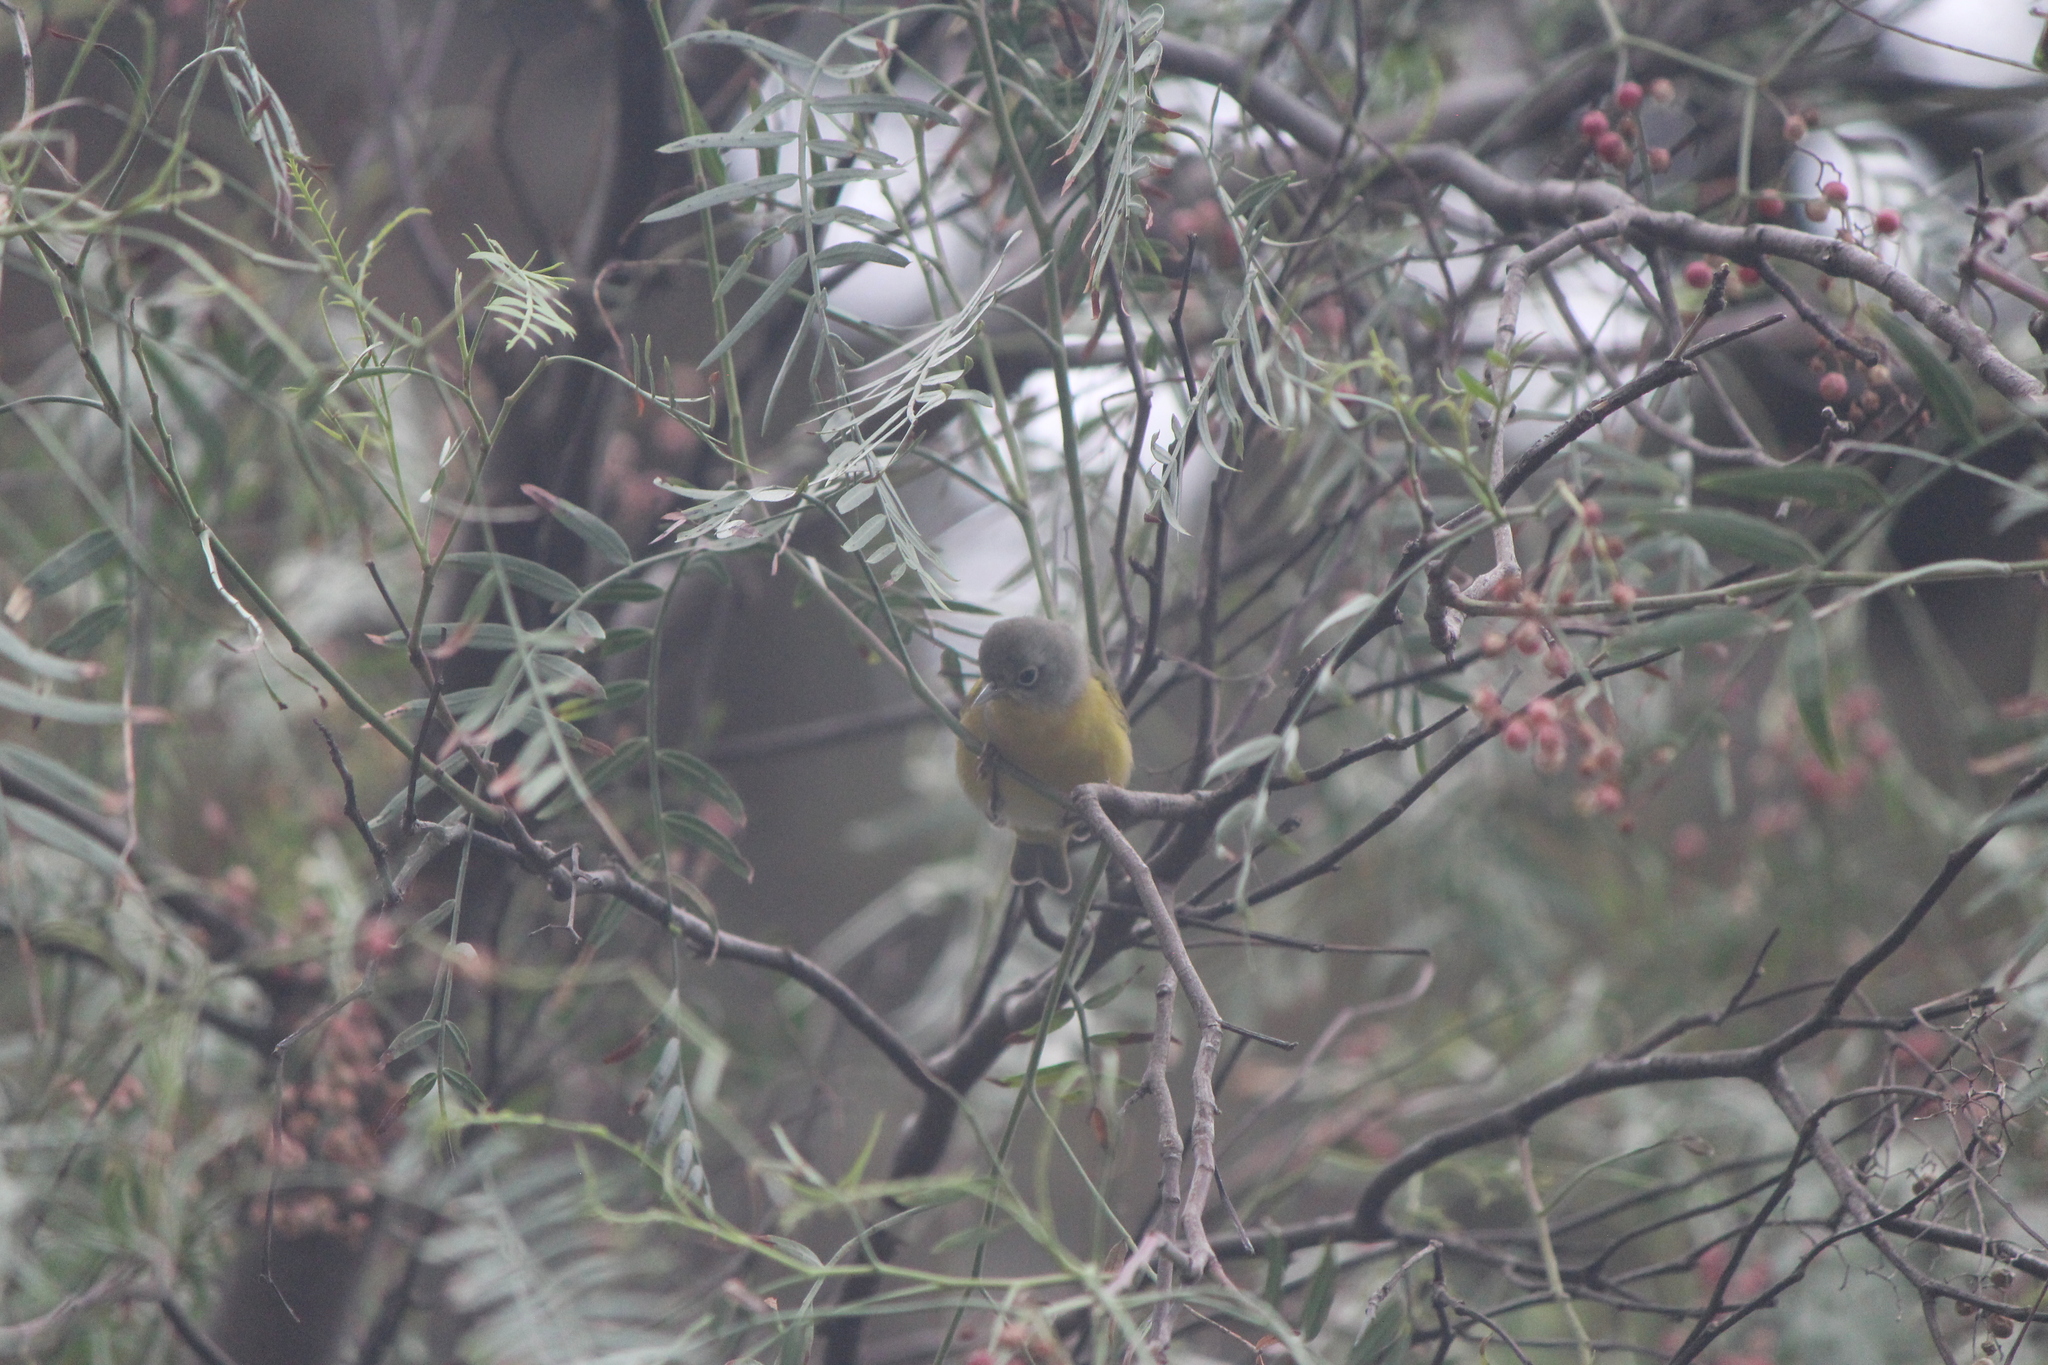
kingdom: Animalia
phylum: Chordata
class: Aves
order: Passeriformes
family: Parulidae
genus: Leiothlypis
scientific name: Leiothlypis ruficapilla
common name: Nashville warbler
